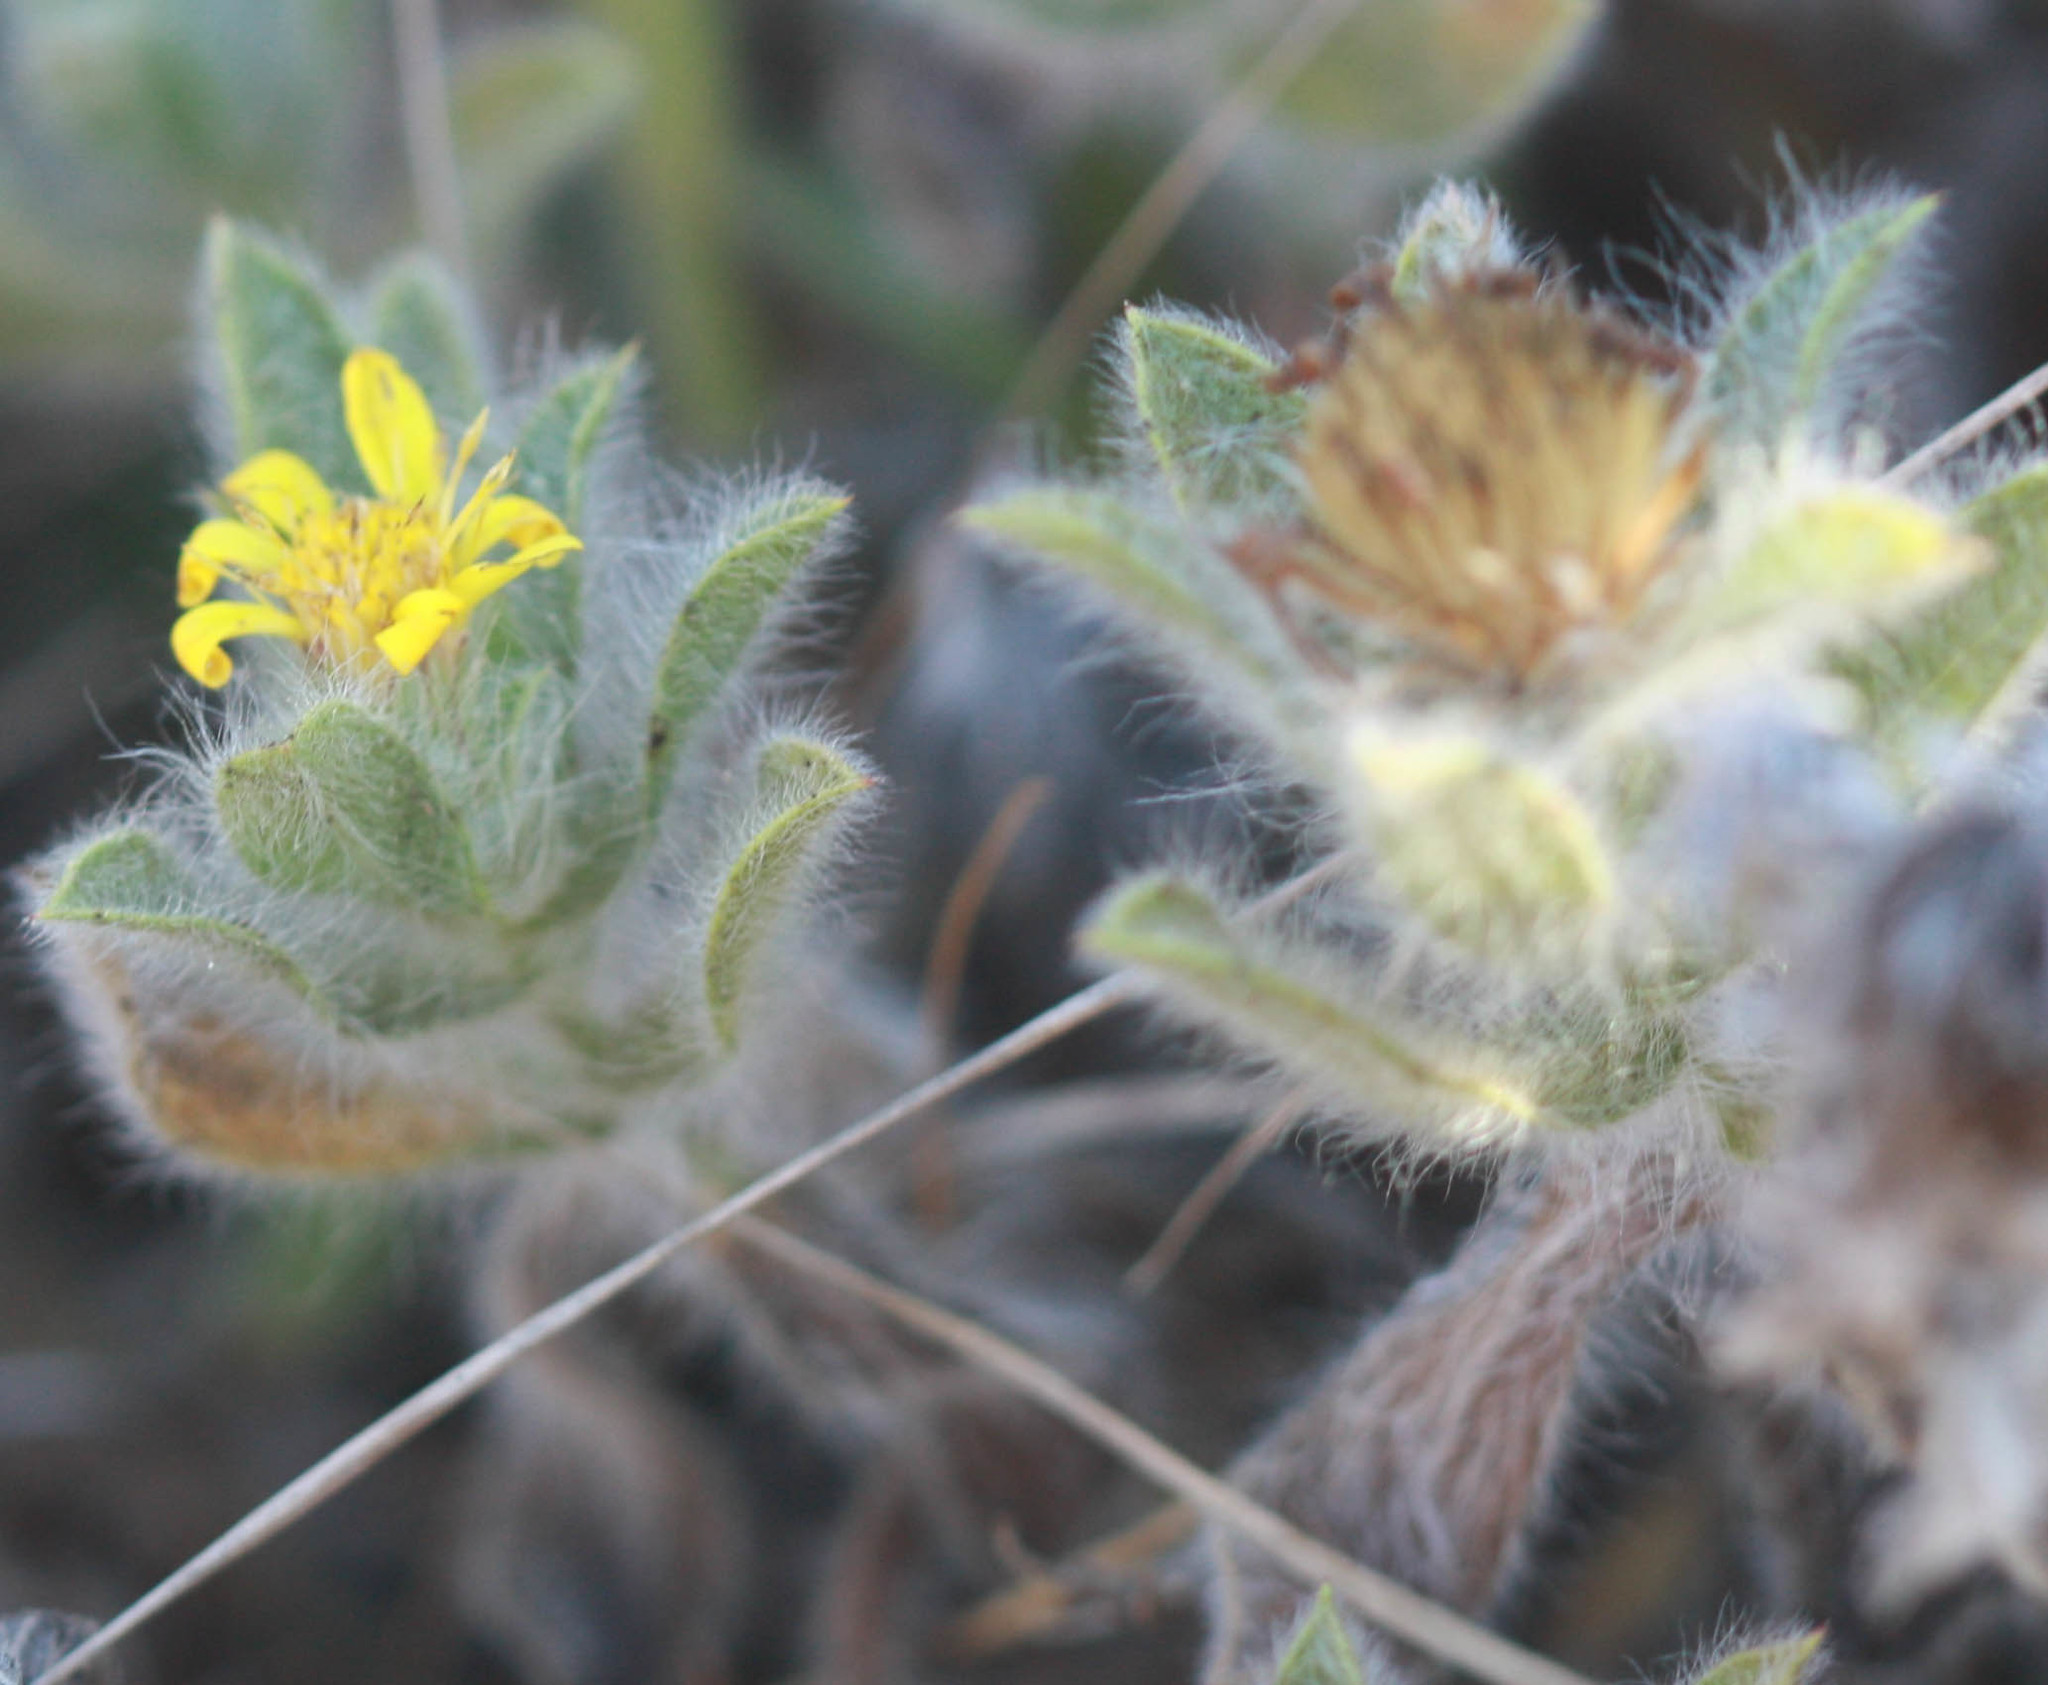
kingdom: Plantae
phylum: Tracheophyta
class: Magnoliopsida
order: Asterales
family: Asteraceae
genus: Heterotheca
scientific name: Heterotheca bolanderi
